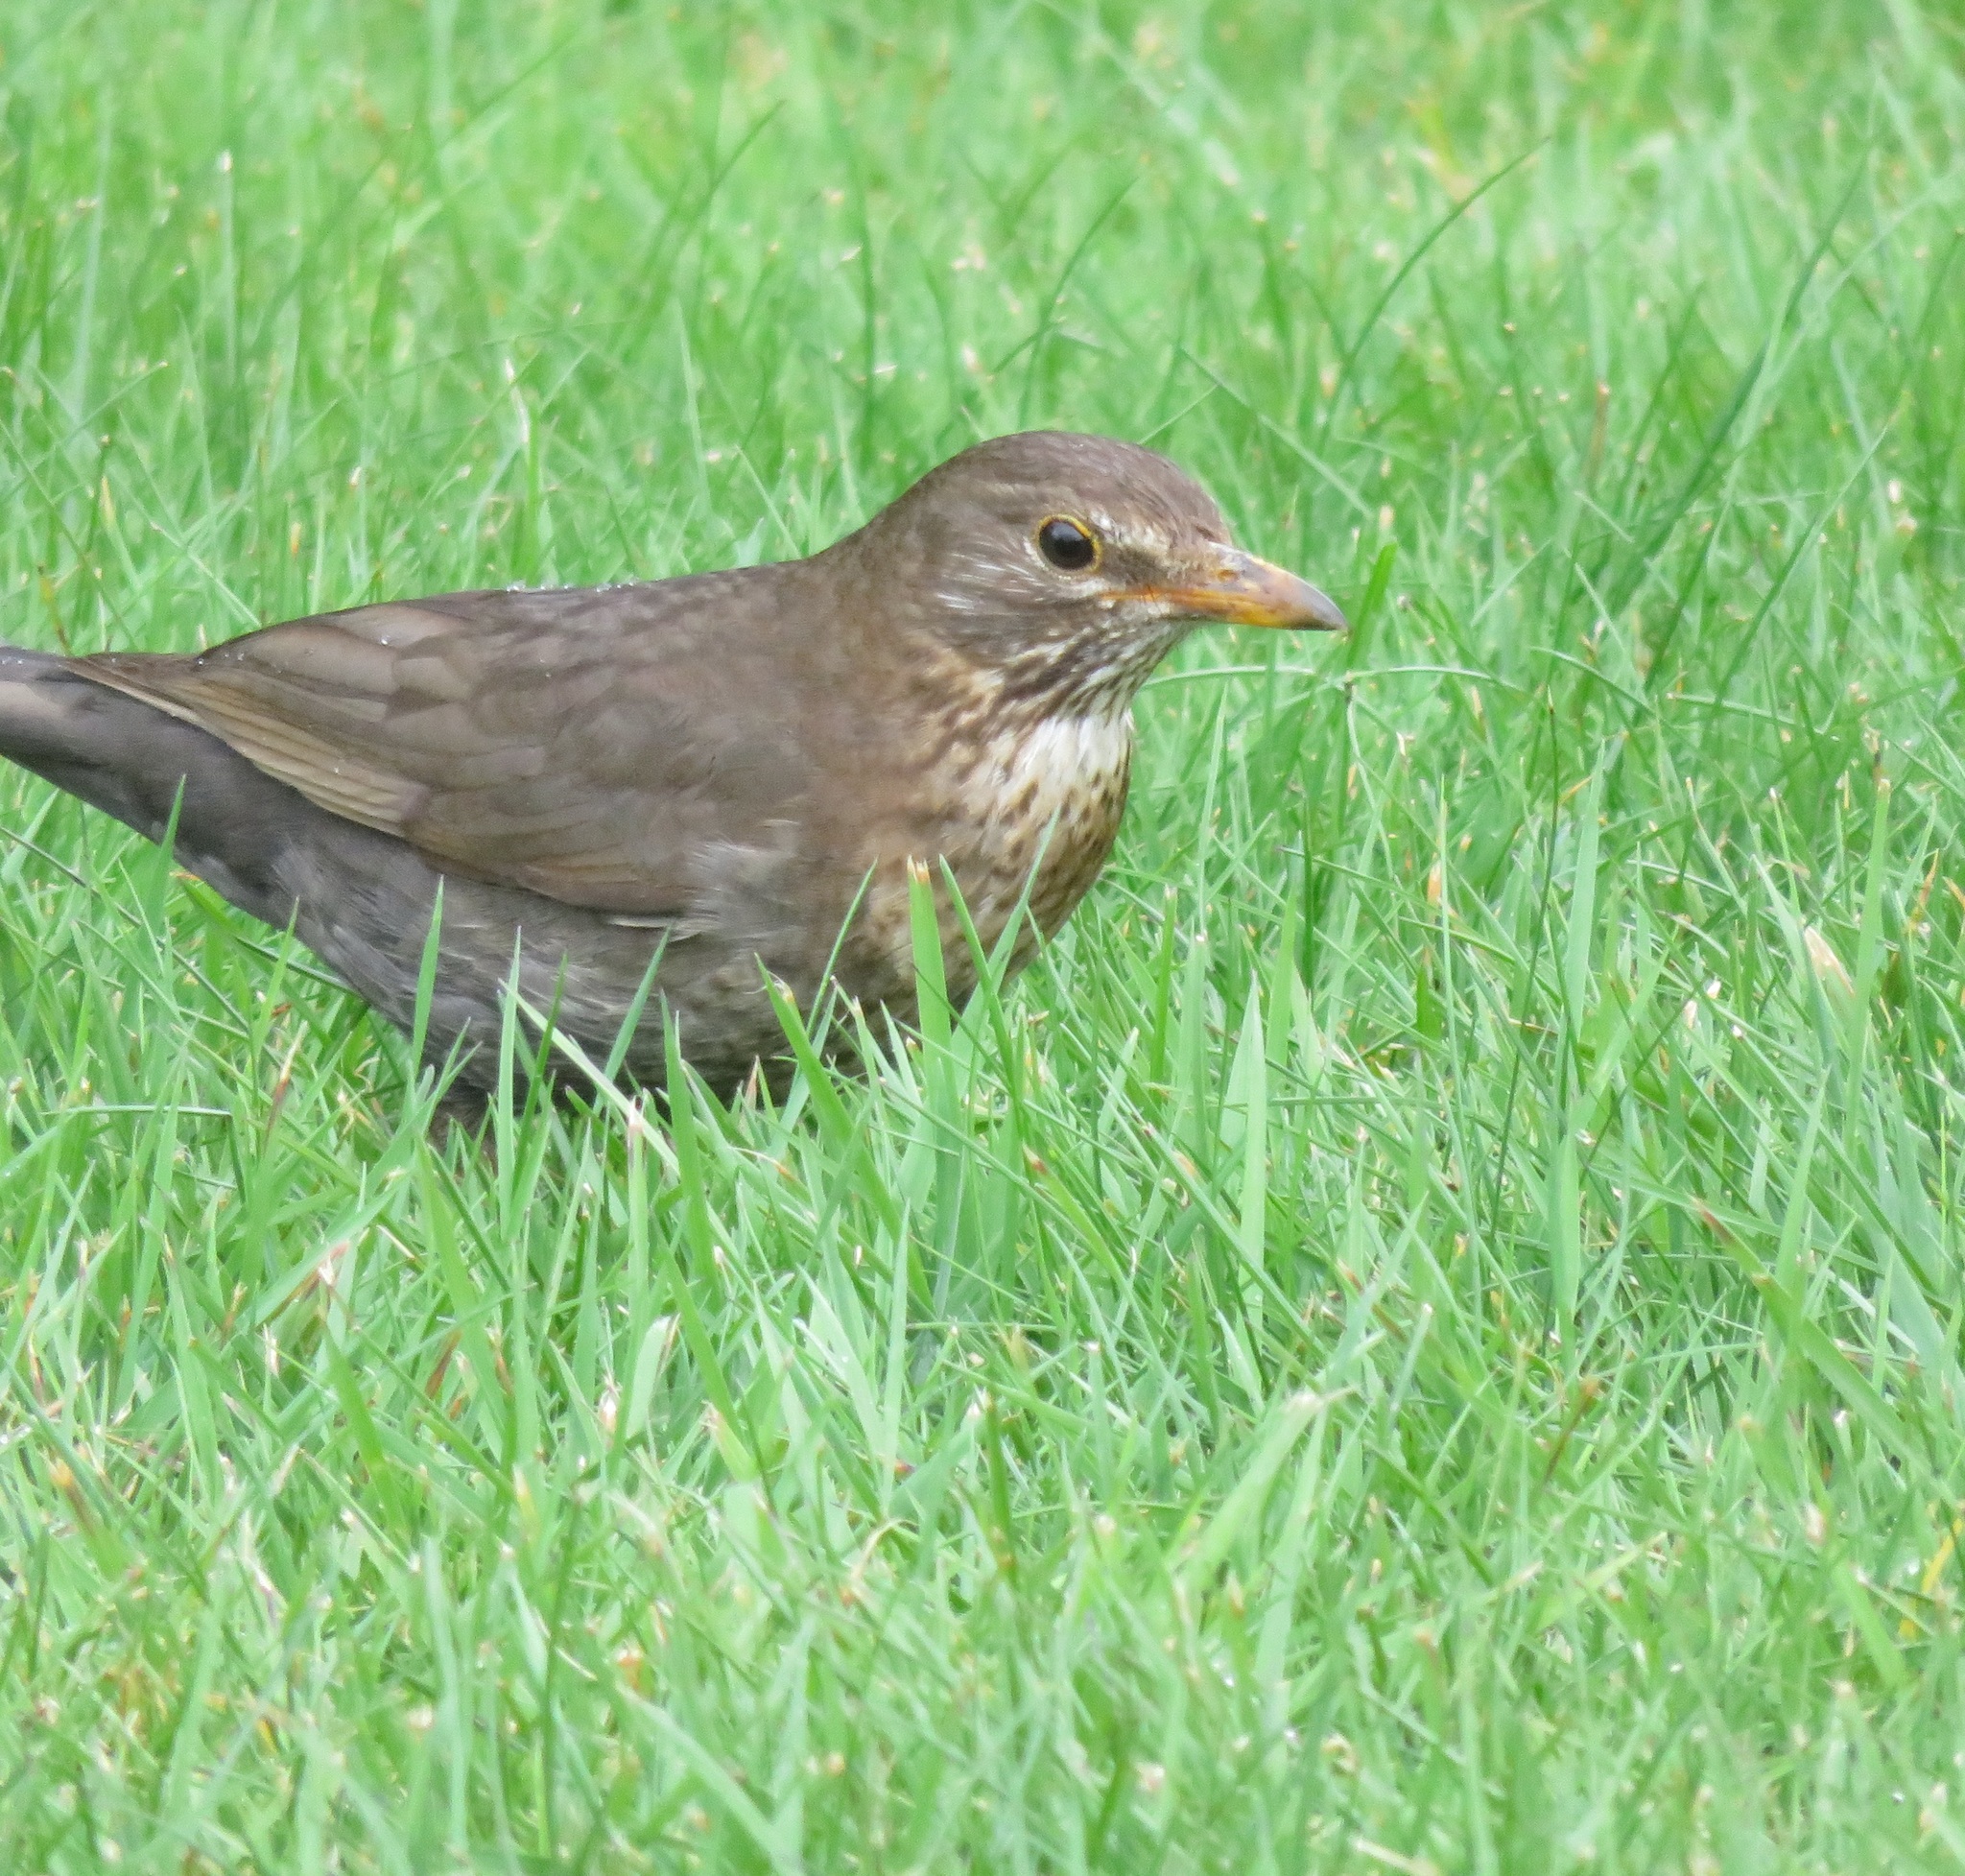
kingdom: Animalia
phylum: Chordata
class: Aves
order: Passeriformes
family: Turdidae
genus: Turdus
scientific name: Turdus merula
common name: Common blackbird
